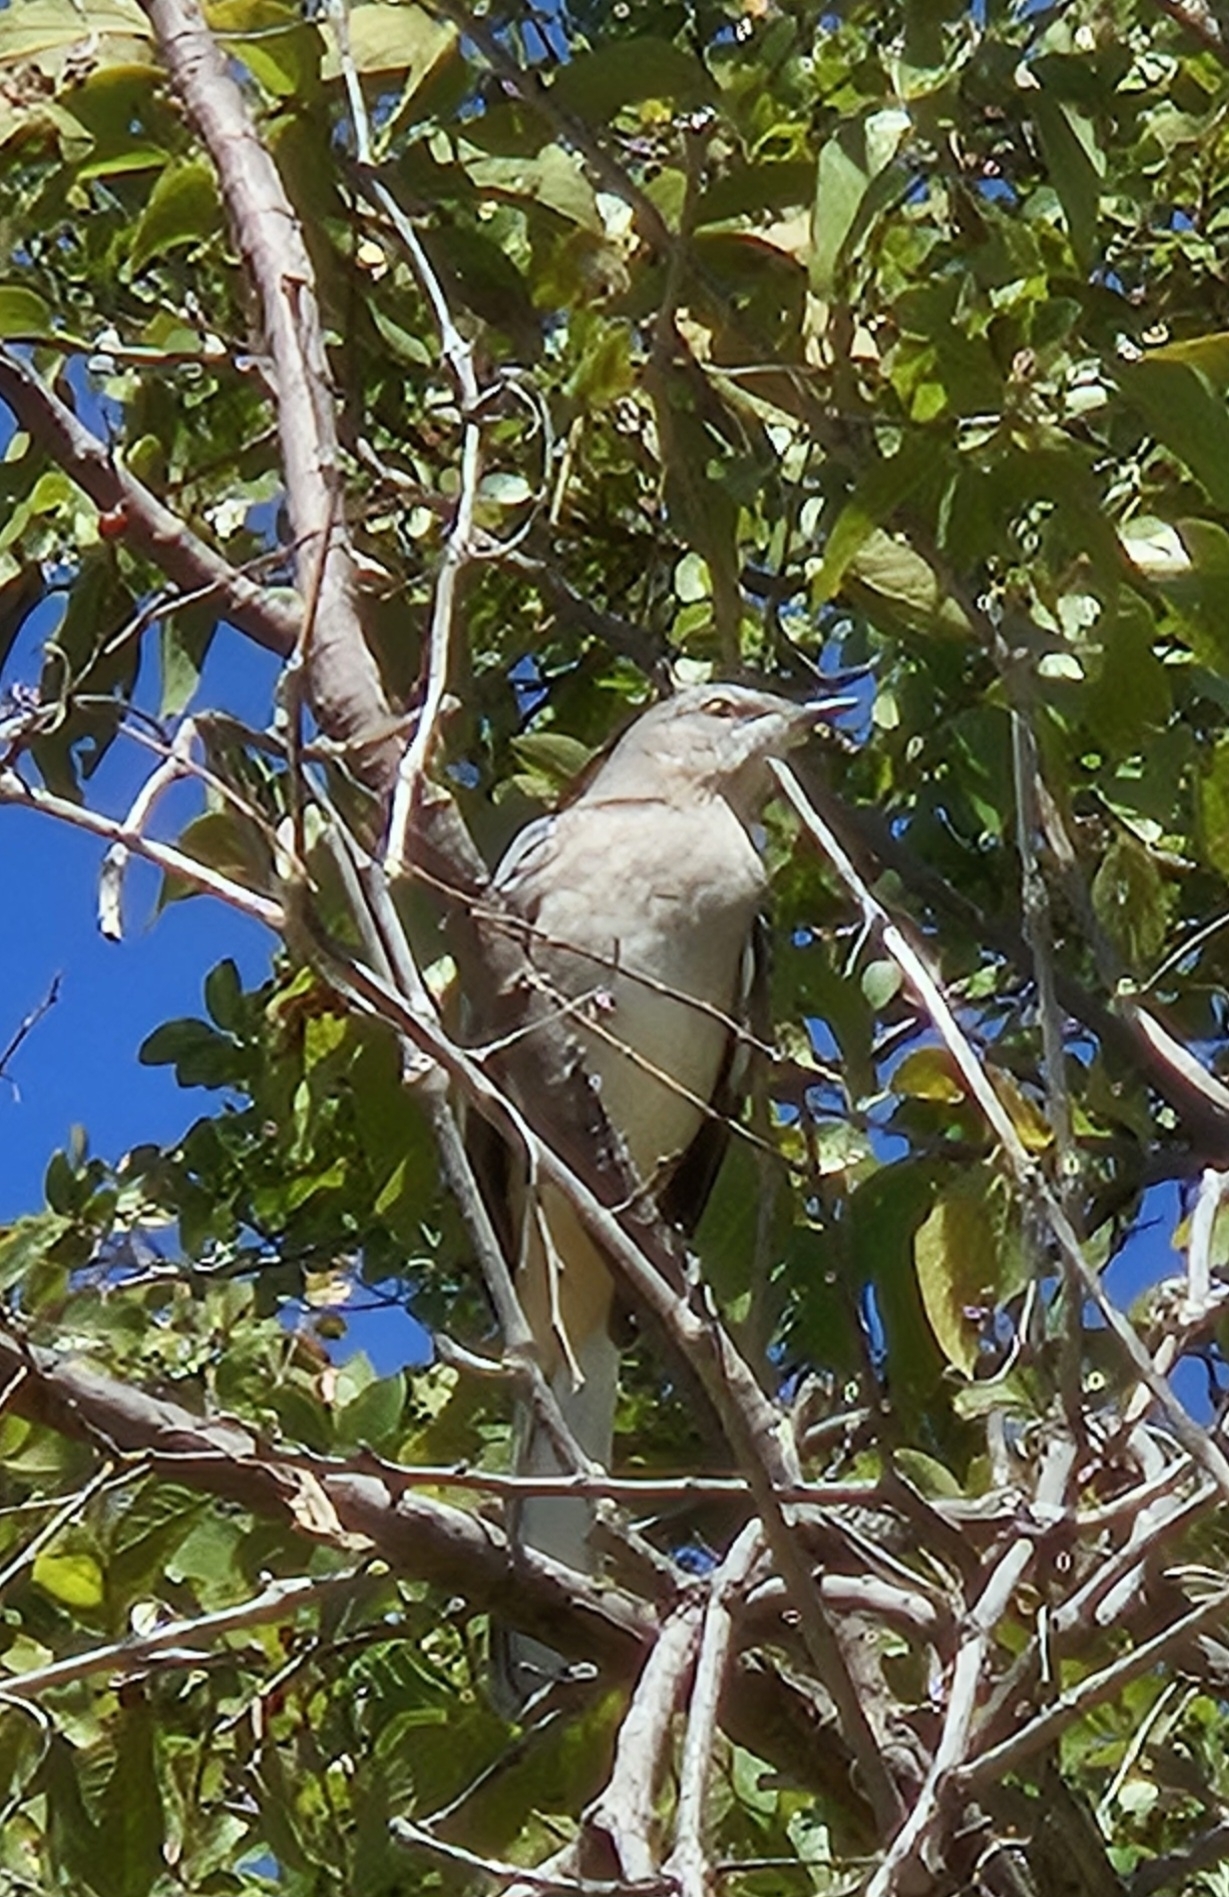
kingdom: Animalia
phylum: Chordata
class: Aves
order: Passeriformes
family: Mimidae
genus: Mimus
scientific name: Mimus polyglottos
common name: Northern mockingbird
